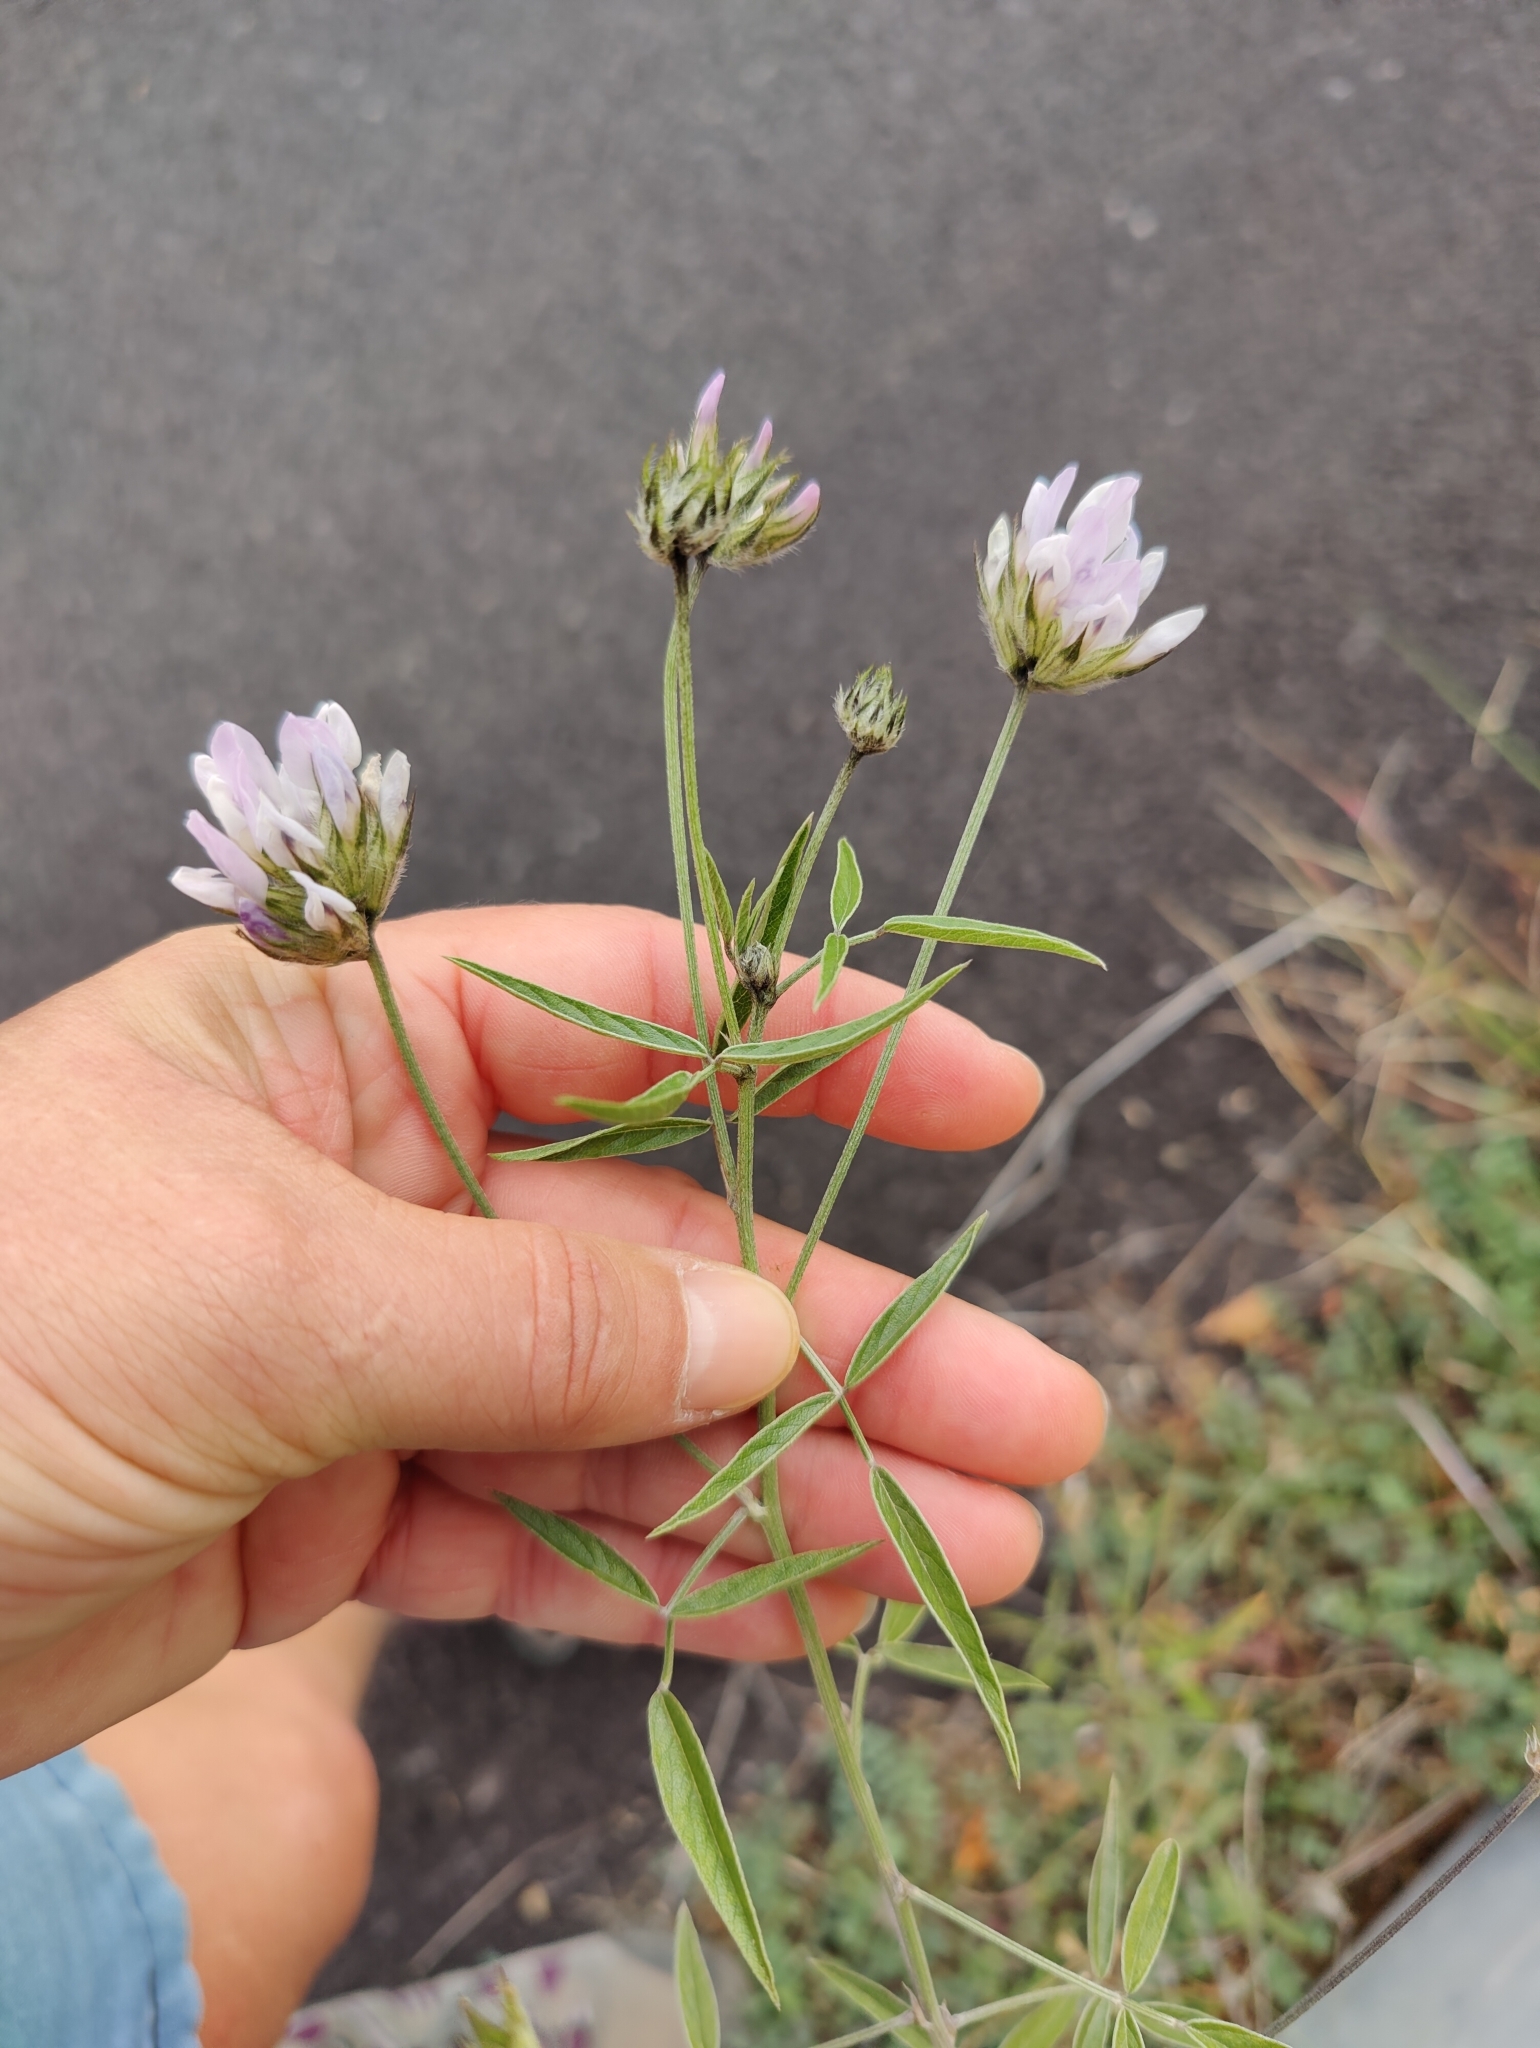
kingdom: Plantae
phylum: Tracheophyta
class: Magnoliopsida
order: Fabales
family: Fabaceae
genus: Bituminaria
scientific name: Bituminaria bituminosa
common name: Arabian pea
